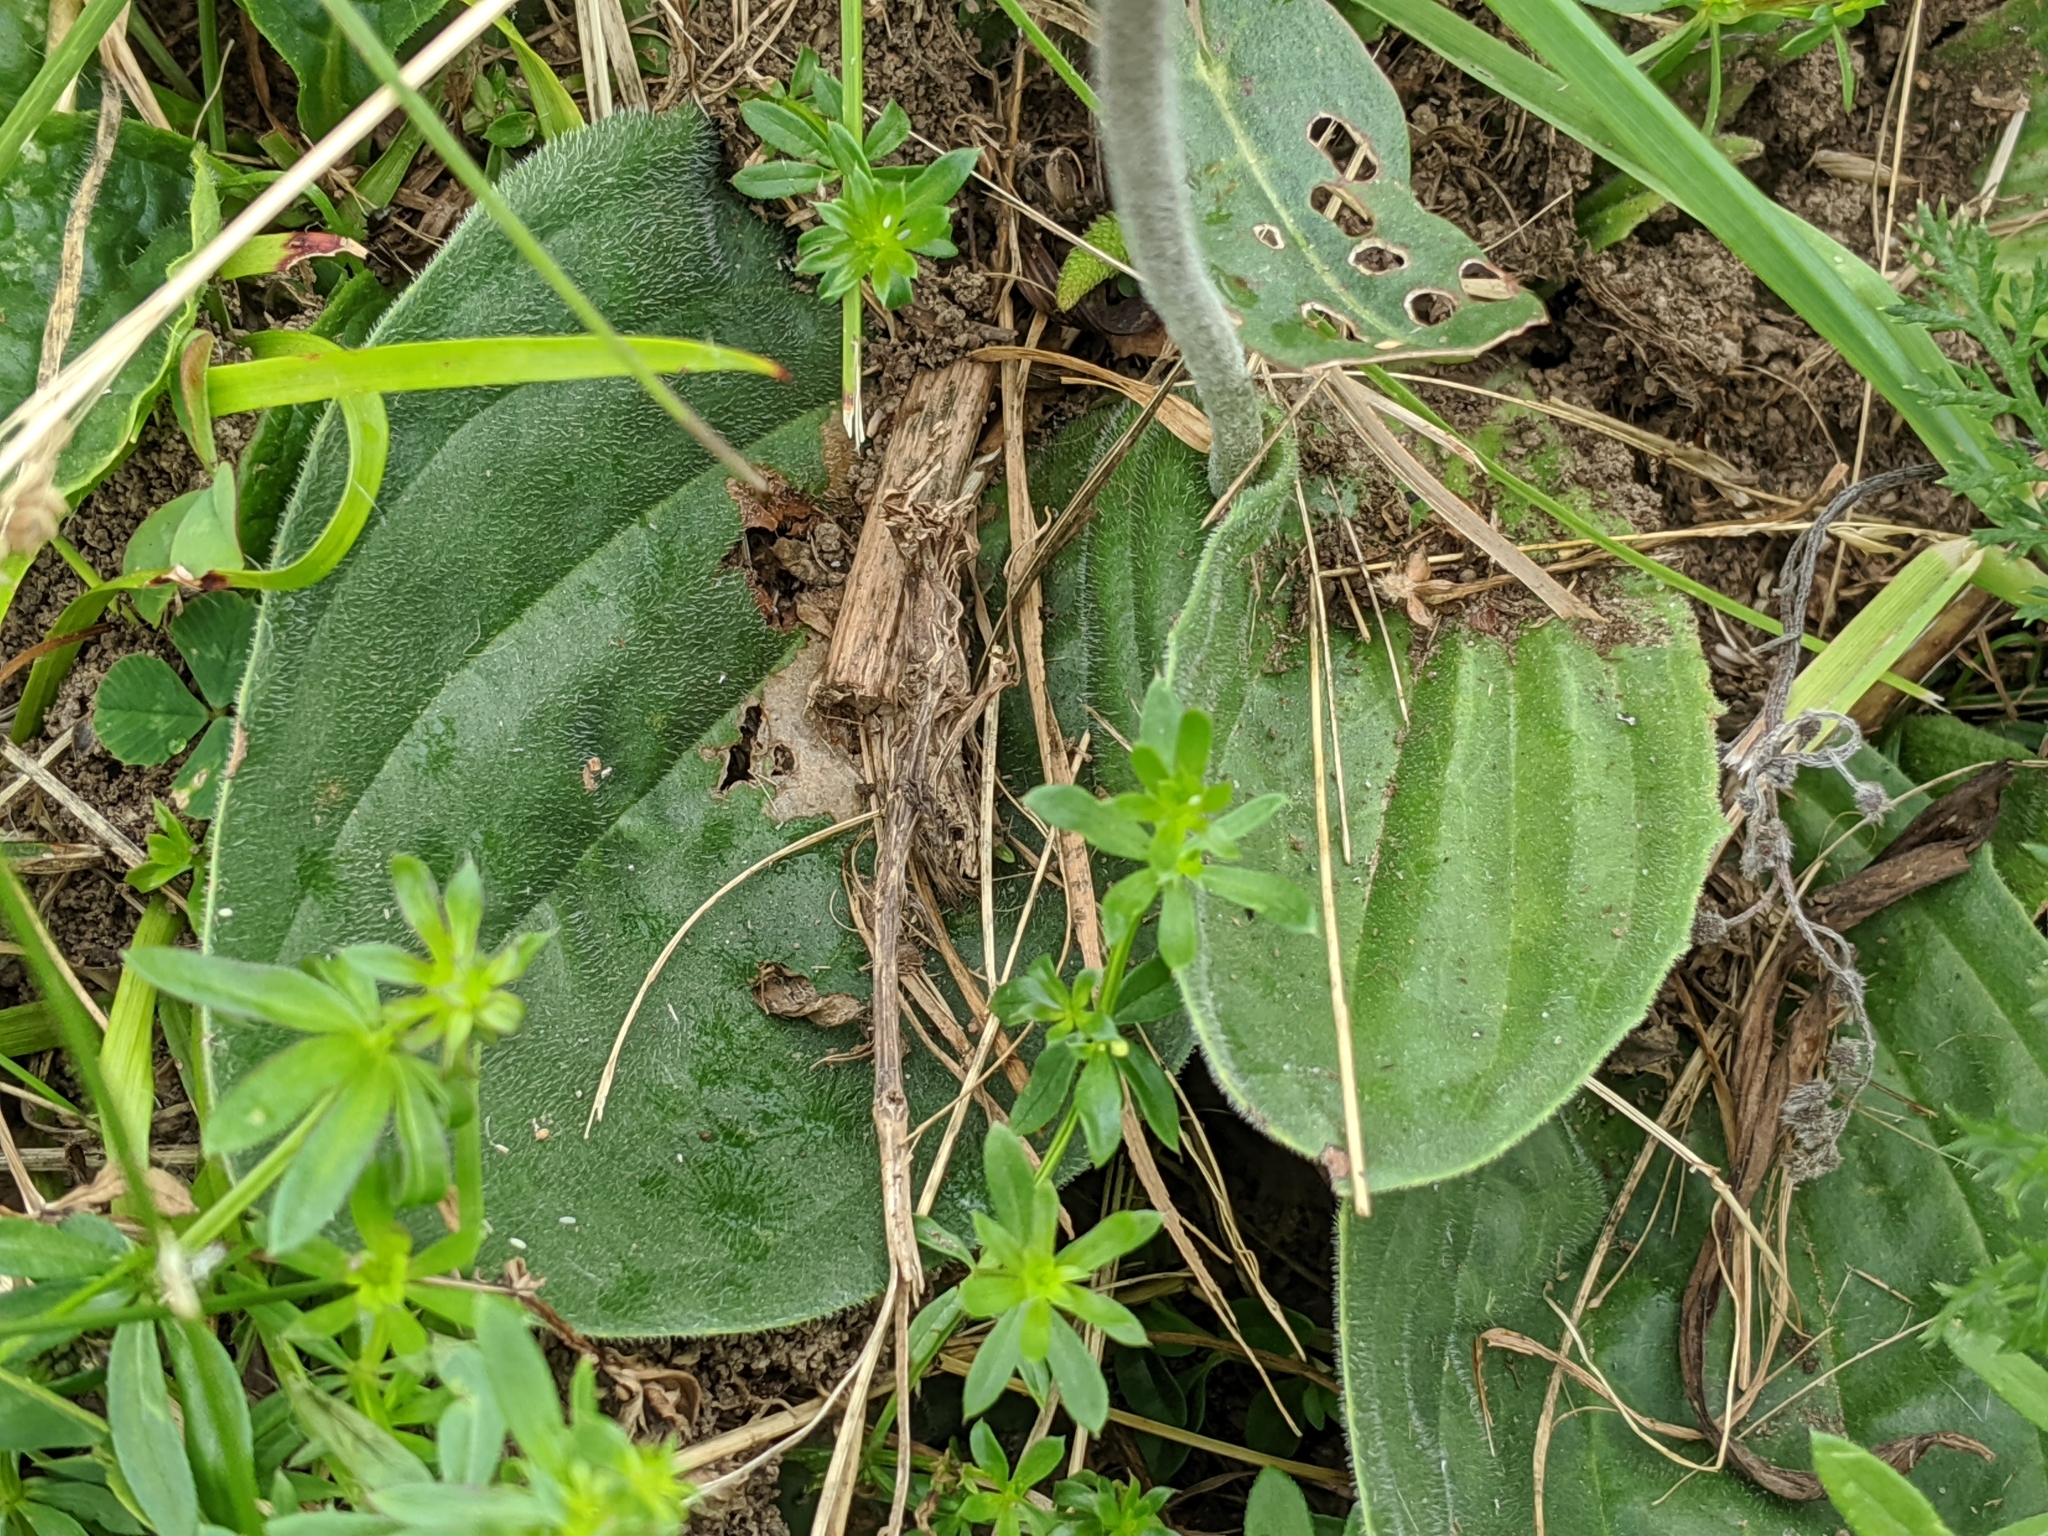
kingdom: Plantae
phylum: Tracheophyta
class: Magnoliopsida
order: Lamiales
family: Plantaginaceae
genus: Plantago
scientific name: Plantago media
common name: Hoary plantain
